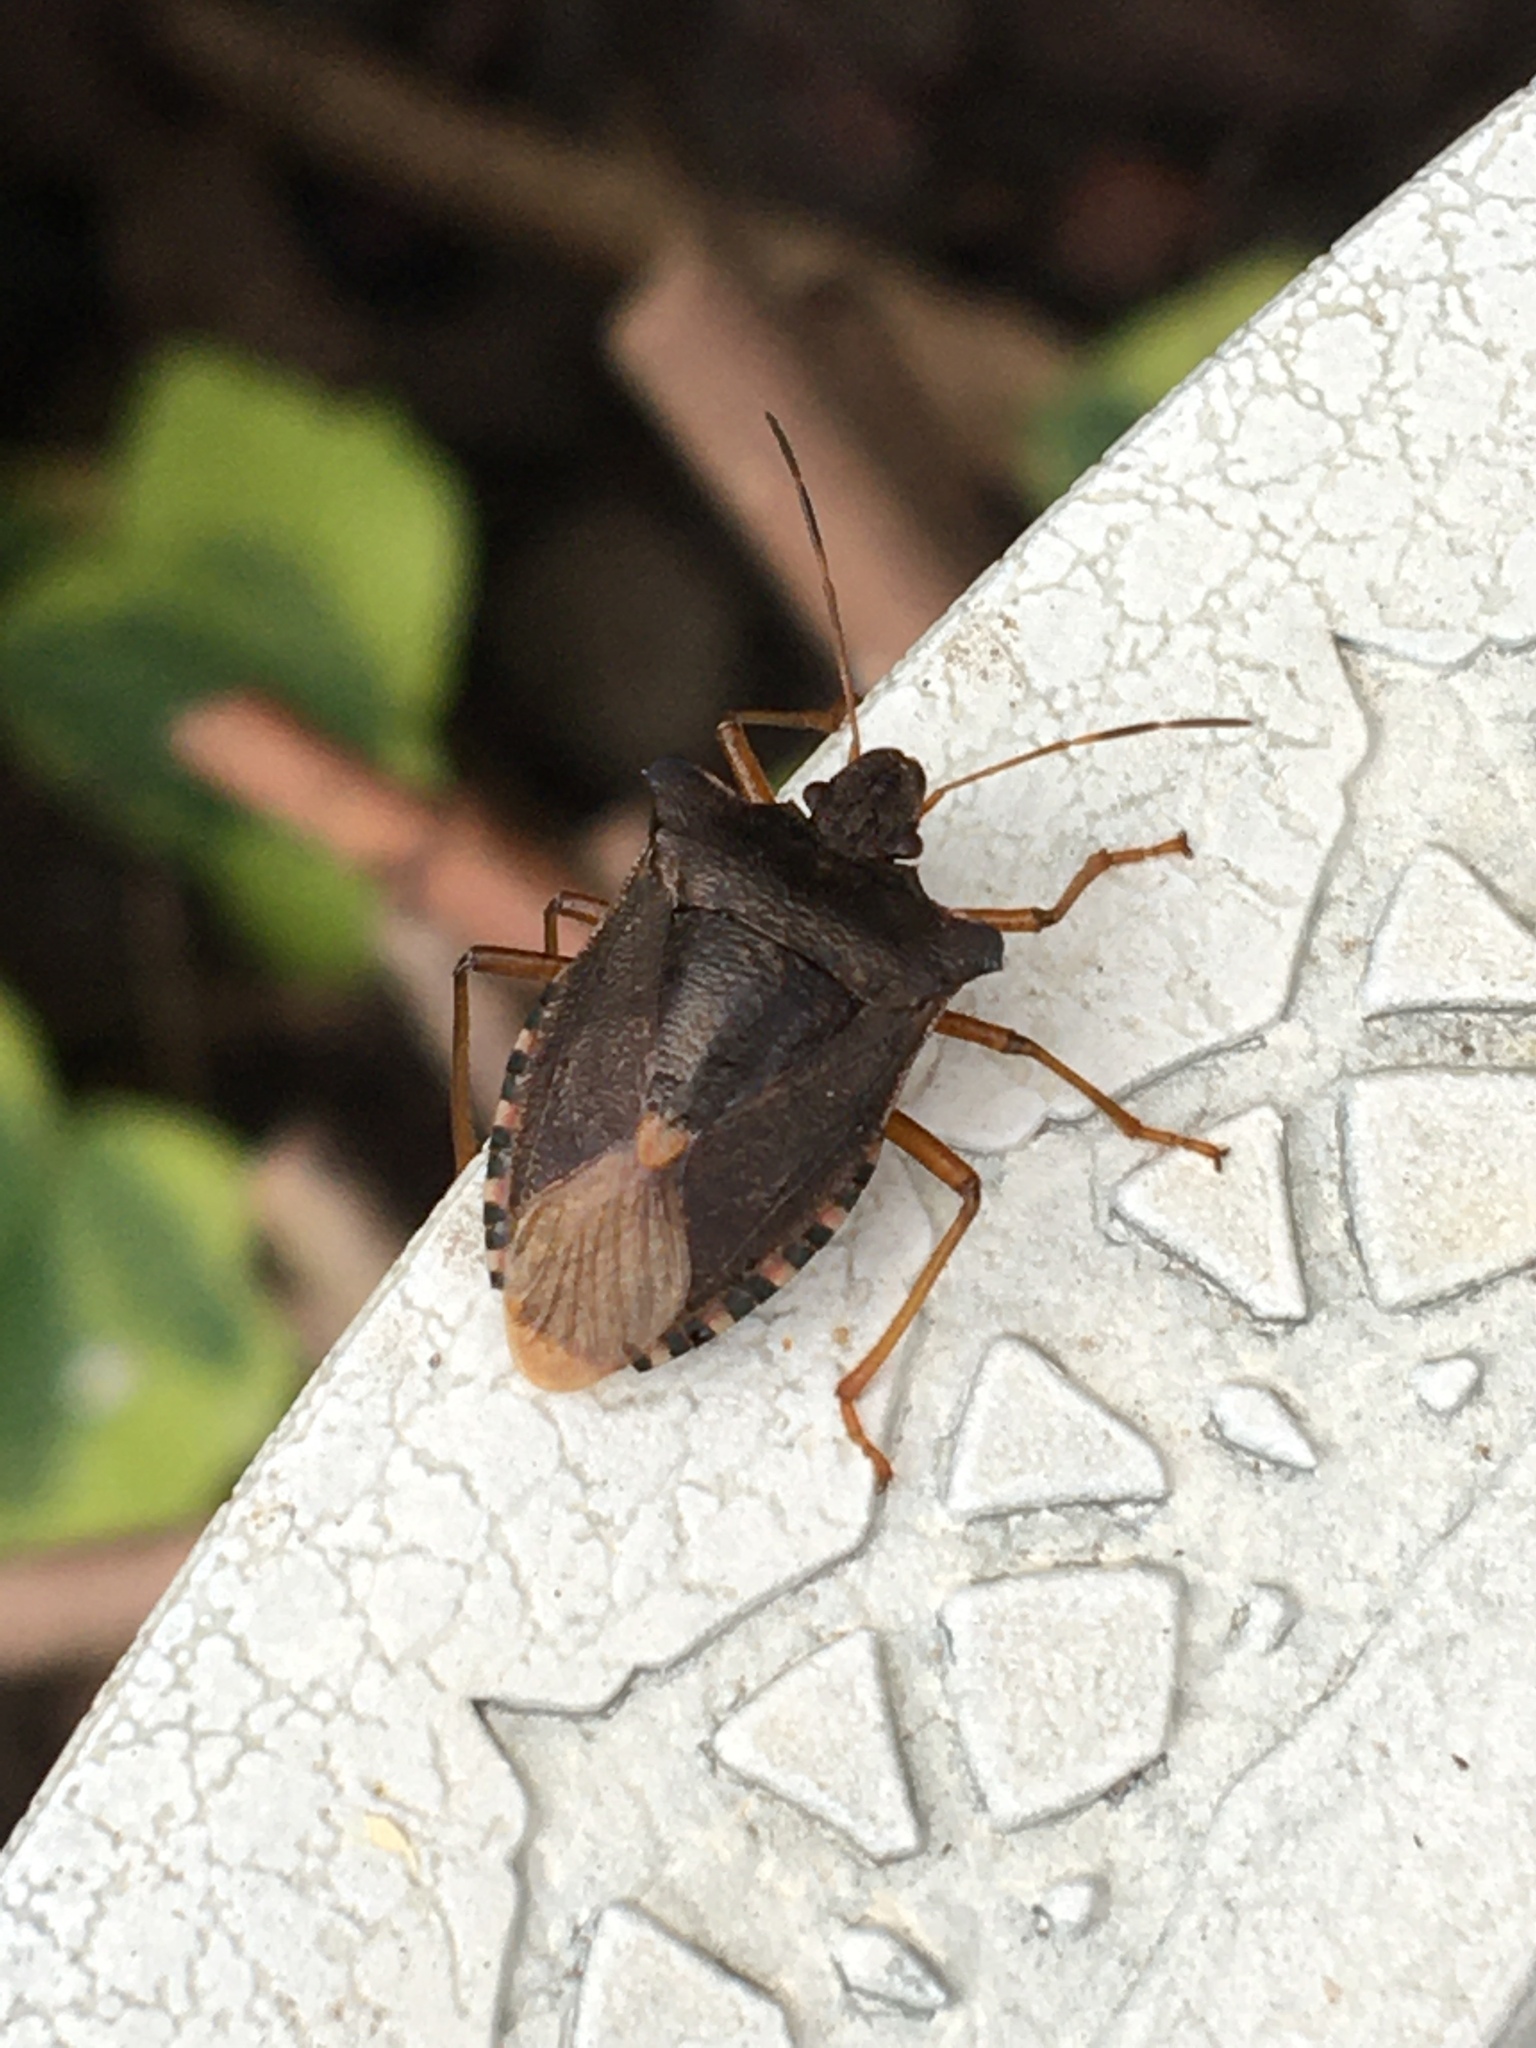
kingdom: Animalia
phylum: Arthropoda
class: Insecta
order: Hemiptera
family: Pentatomidae
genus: Pentatoma
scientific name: Pentatoma rufipes
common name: Forest bug
